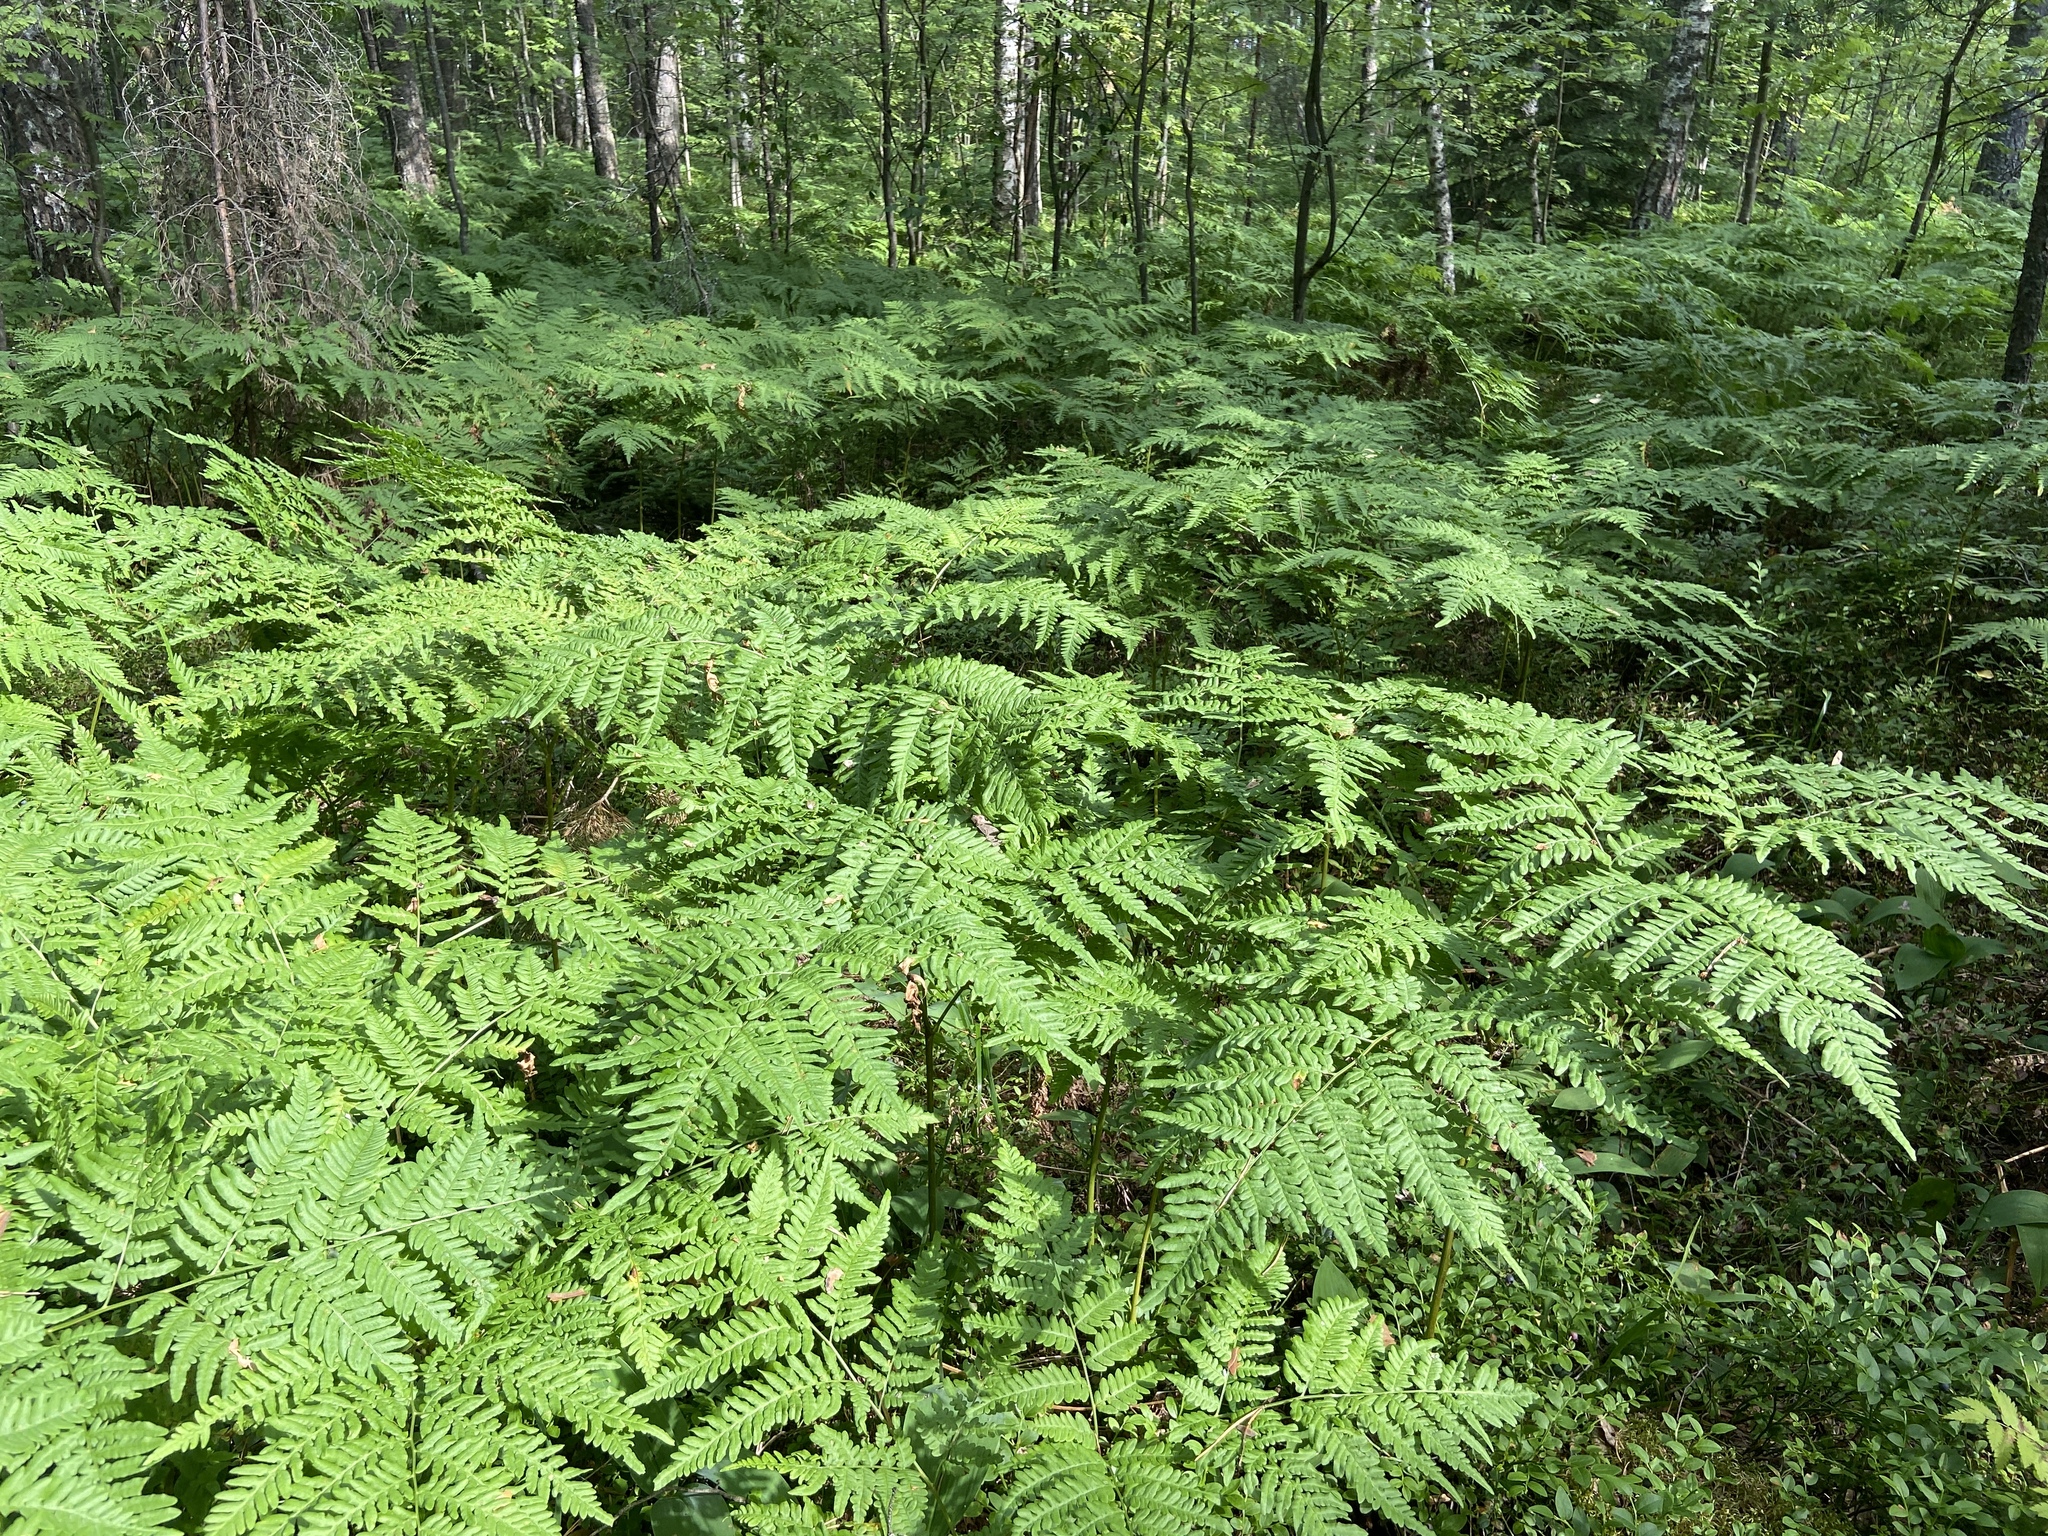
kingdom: Plantae
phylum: Tracheophyta
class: Polypodiopsida
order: Polypodiales
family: Dennstaedtiaceae
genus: Pteridium
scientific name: Pteridium aquilinum
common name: Bracken
